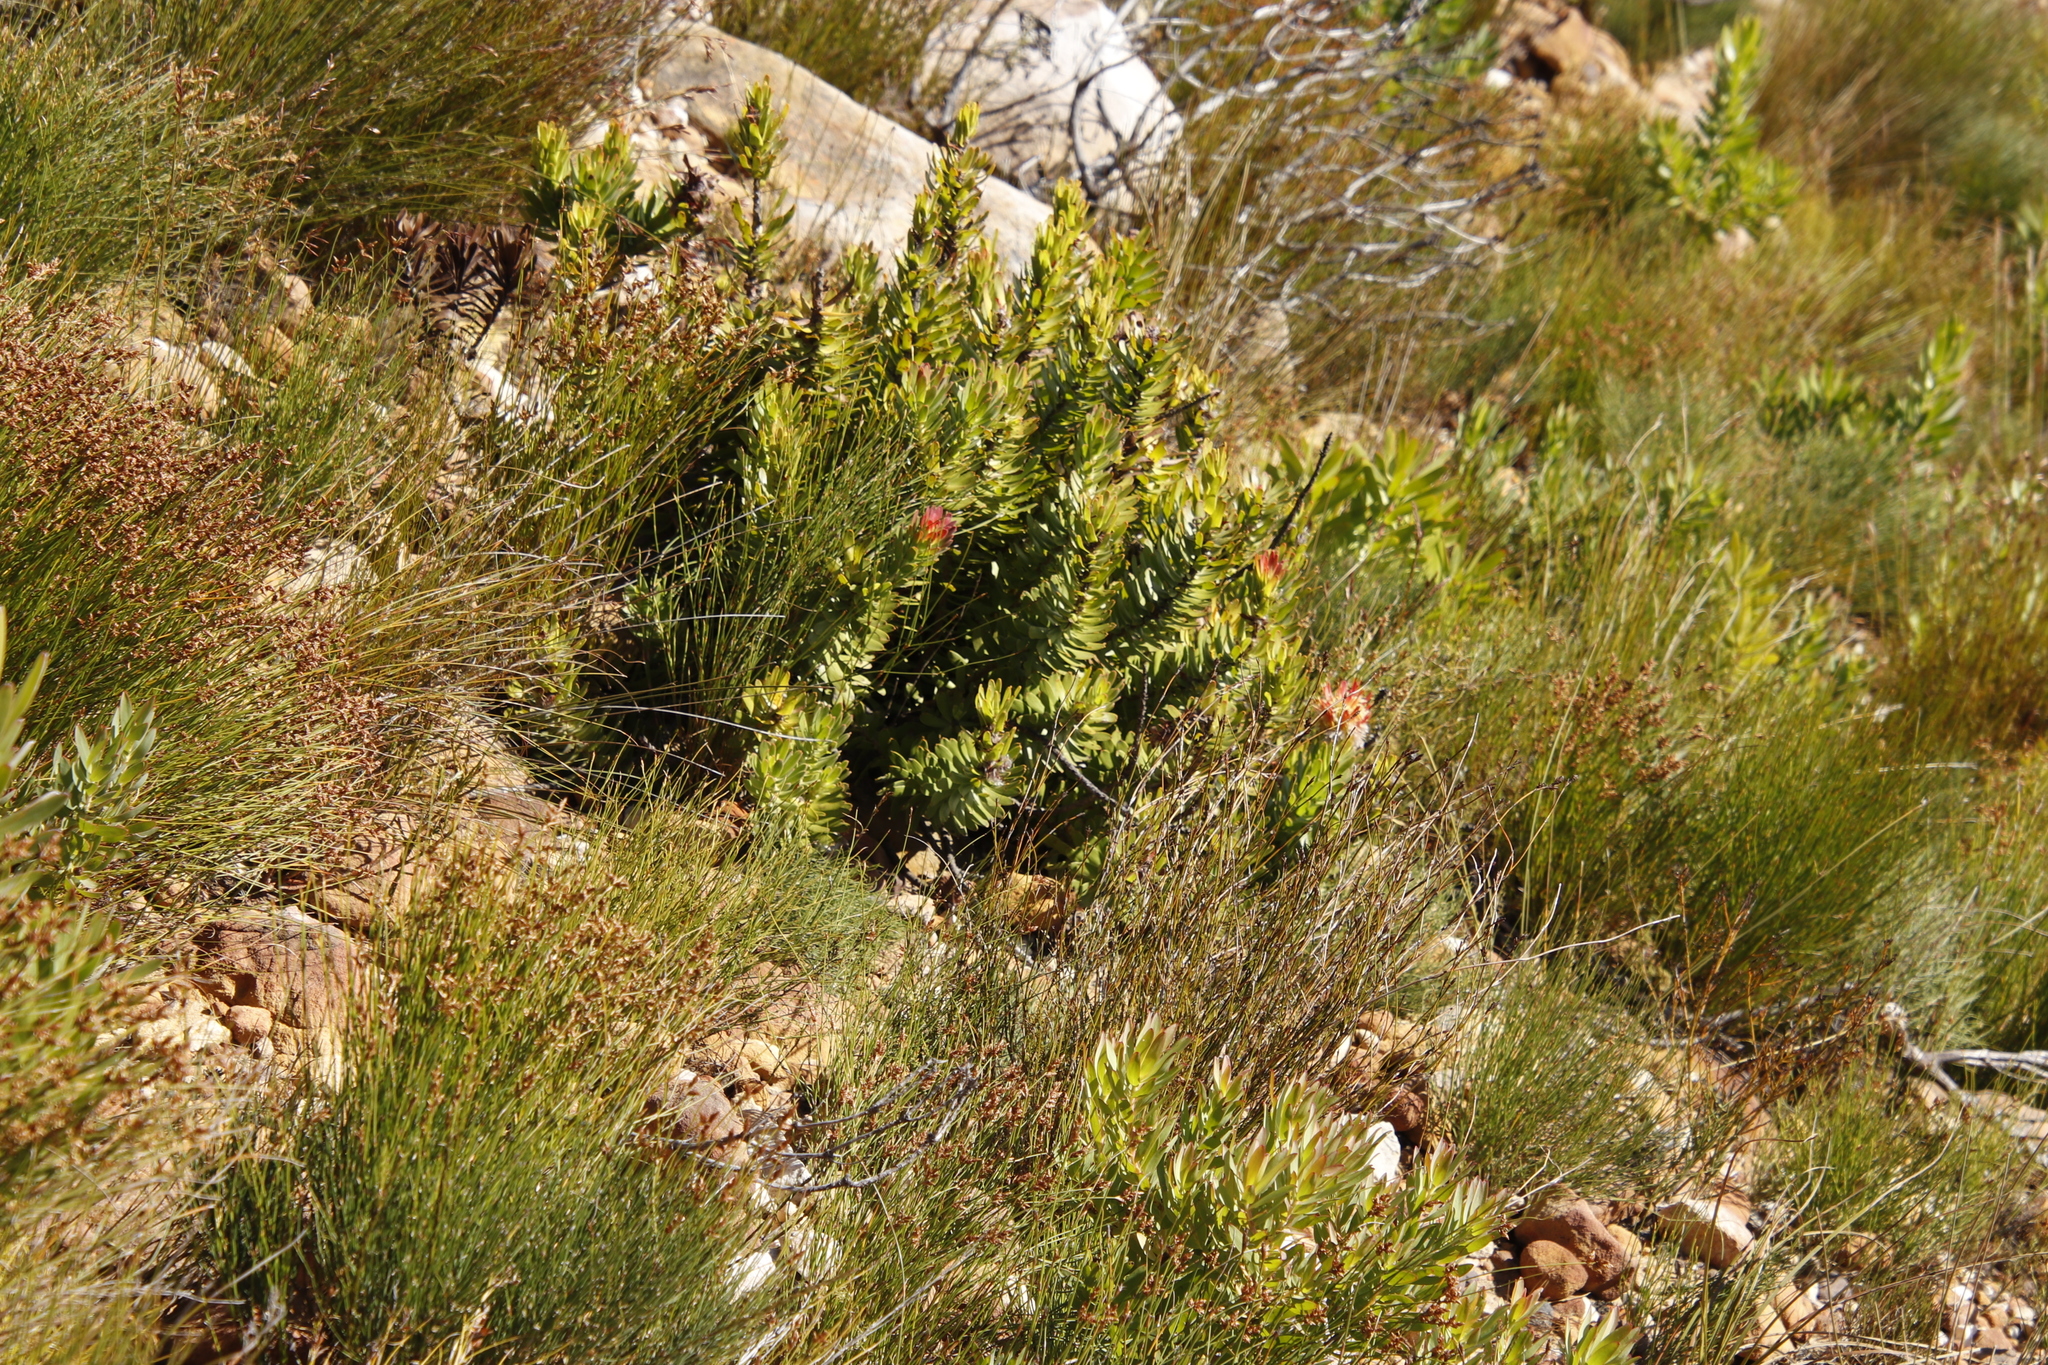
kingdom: Plantae
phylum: Tracheophyta
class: Magnoliopsida
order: Proteales
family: Proteaceae
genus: Mimetes
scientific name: Mimetes cucullatus
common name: Common pagoda
